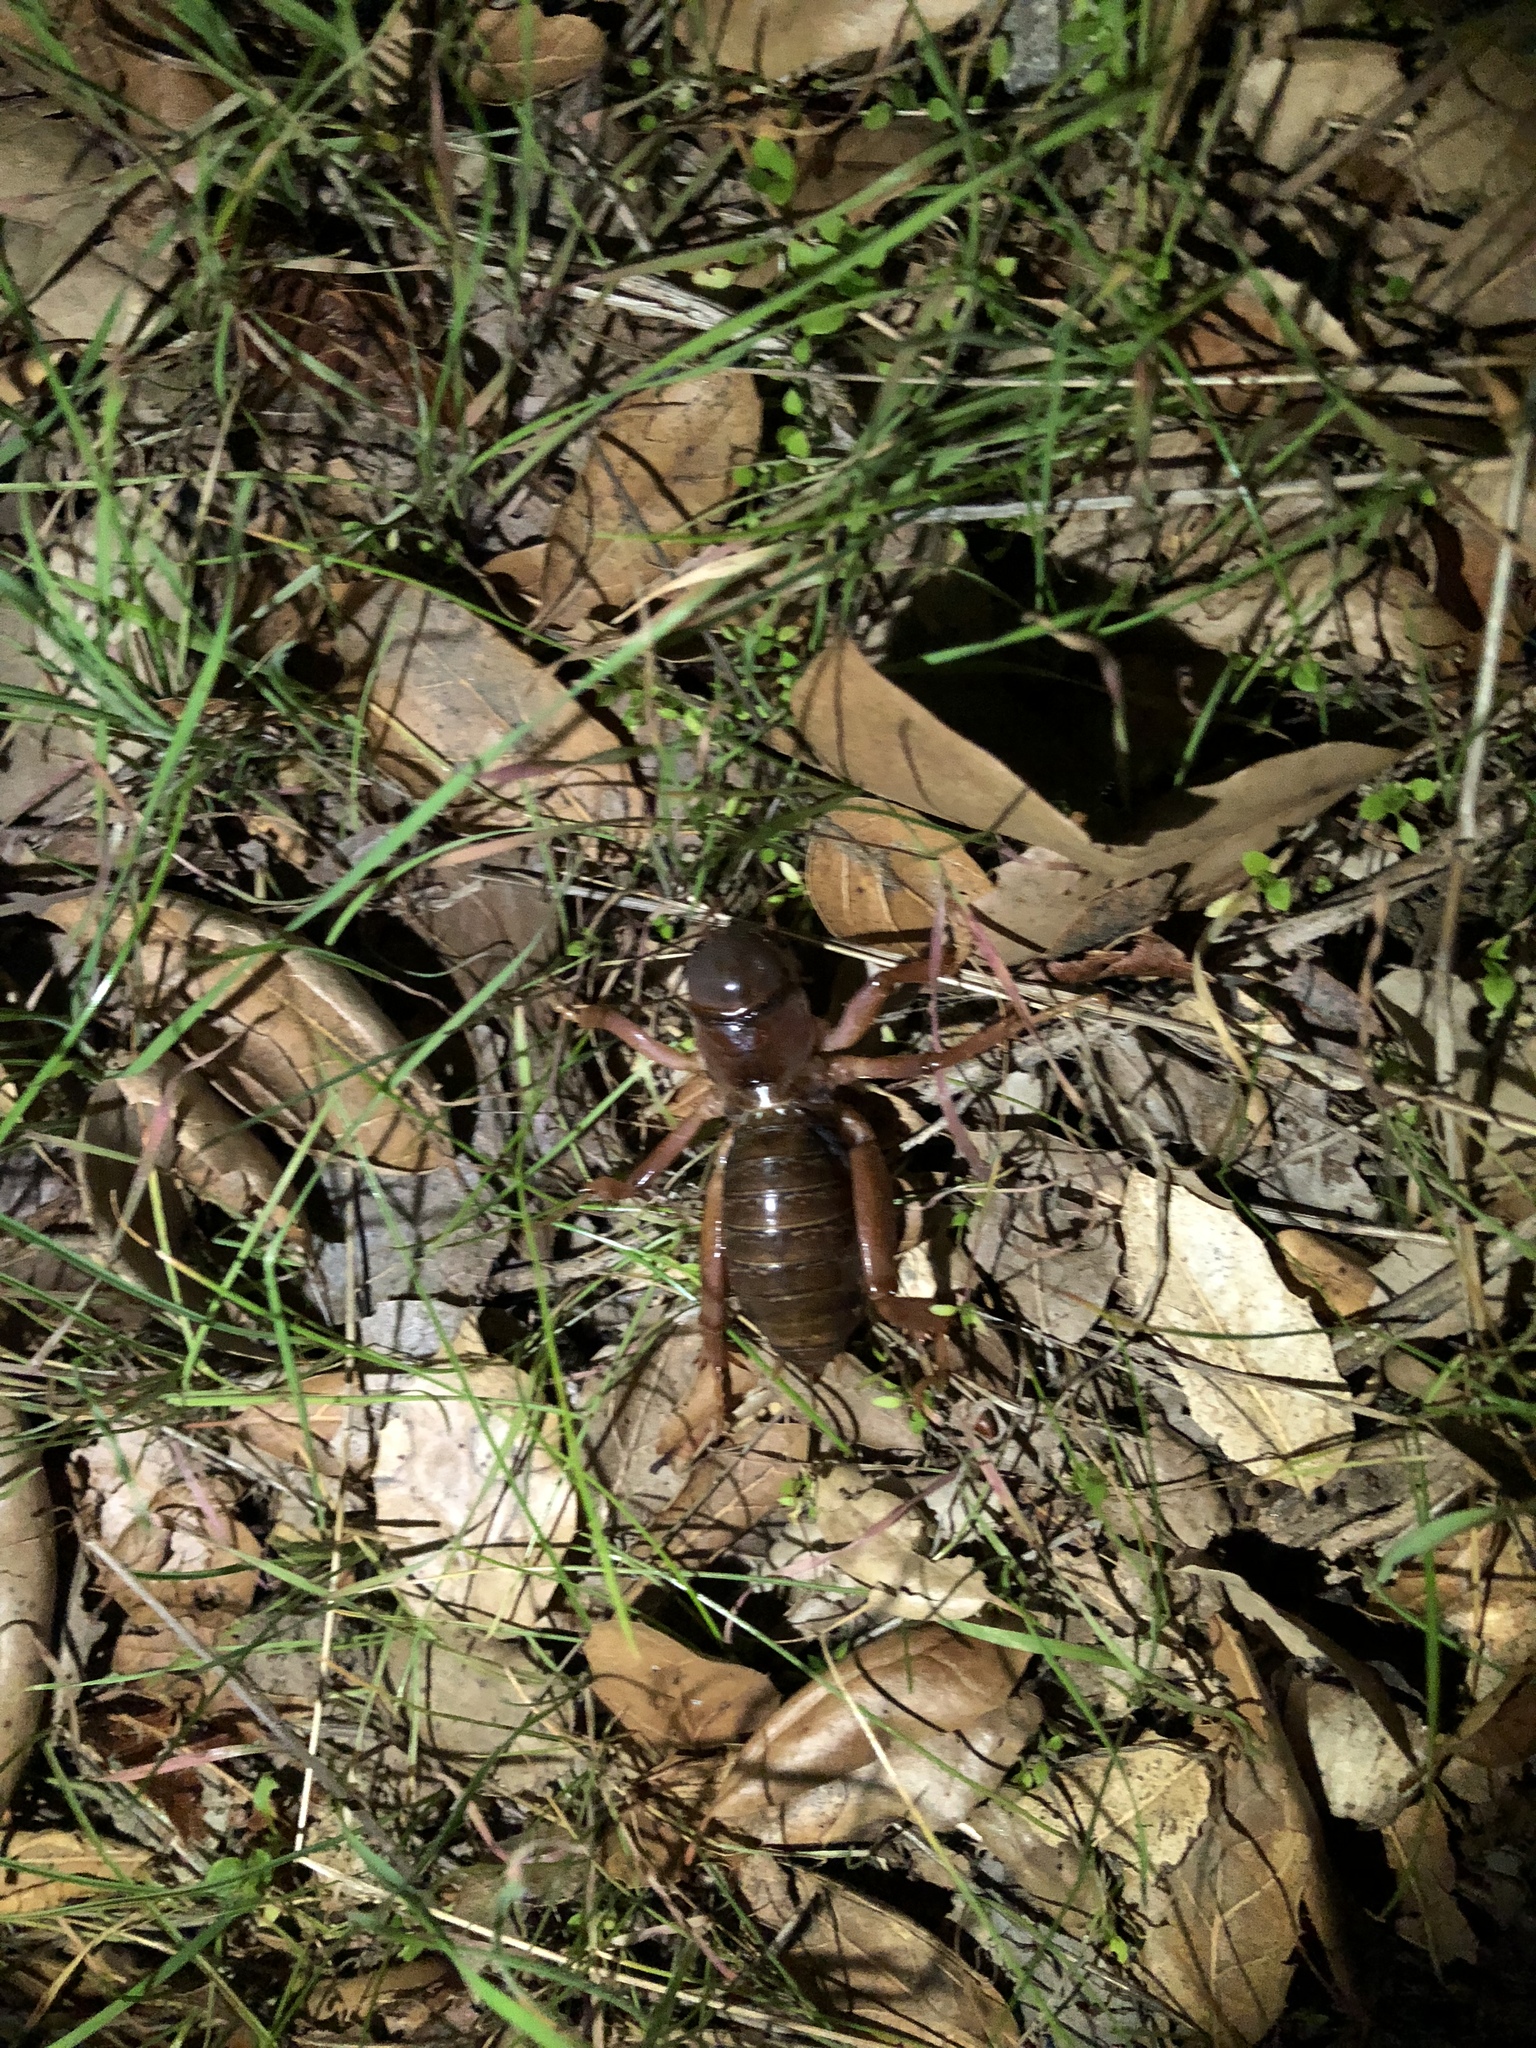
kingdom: Animalia
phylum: Arthropoda
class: Insecta
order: Orthoptera
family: Stenopelmatidae
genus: Ammopelmatus
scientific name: Ammopelmatus
